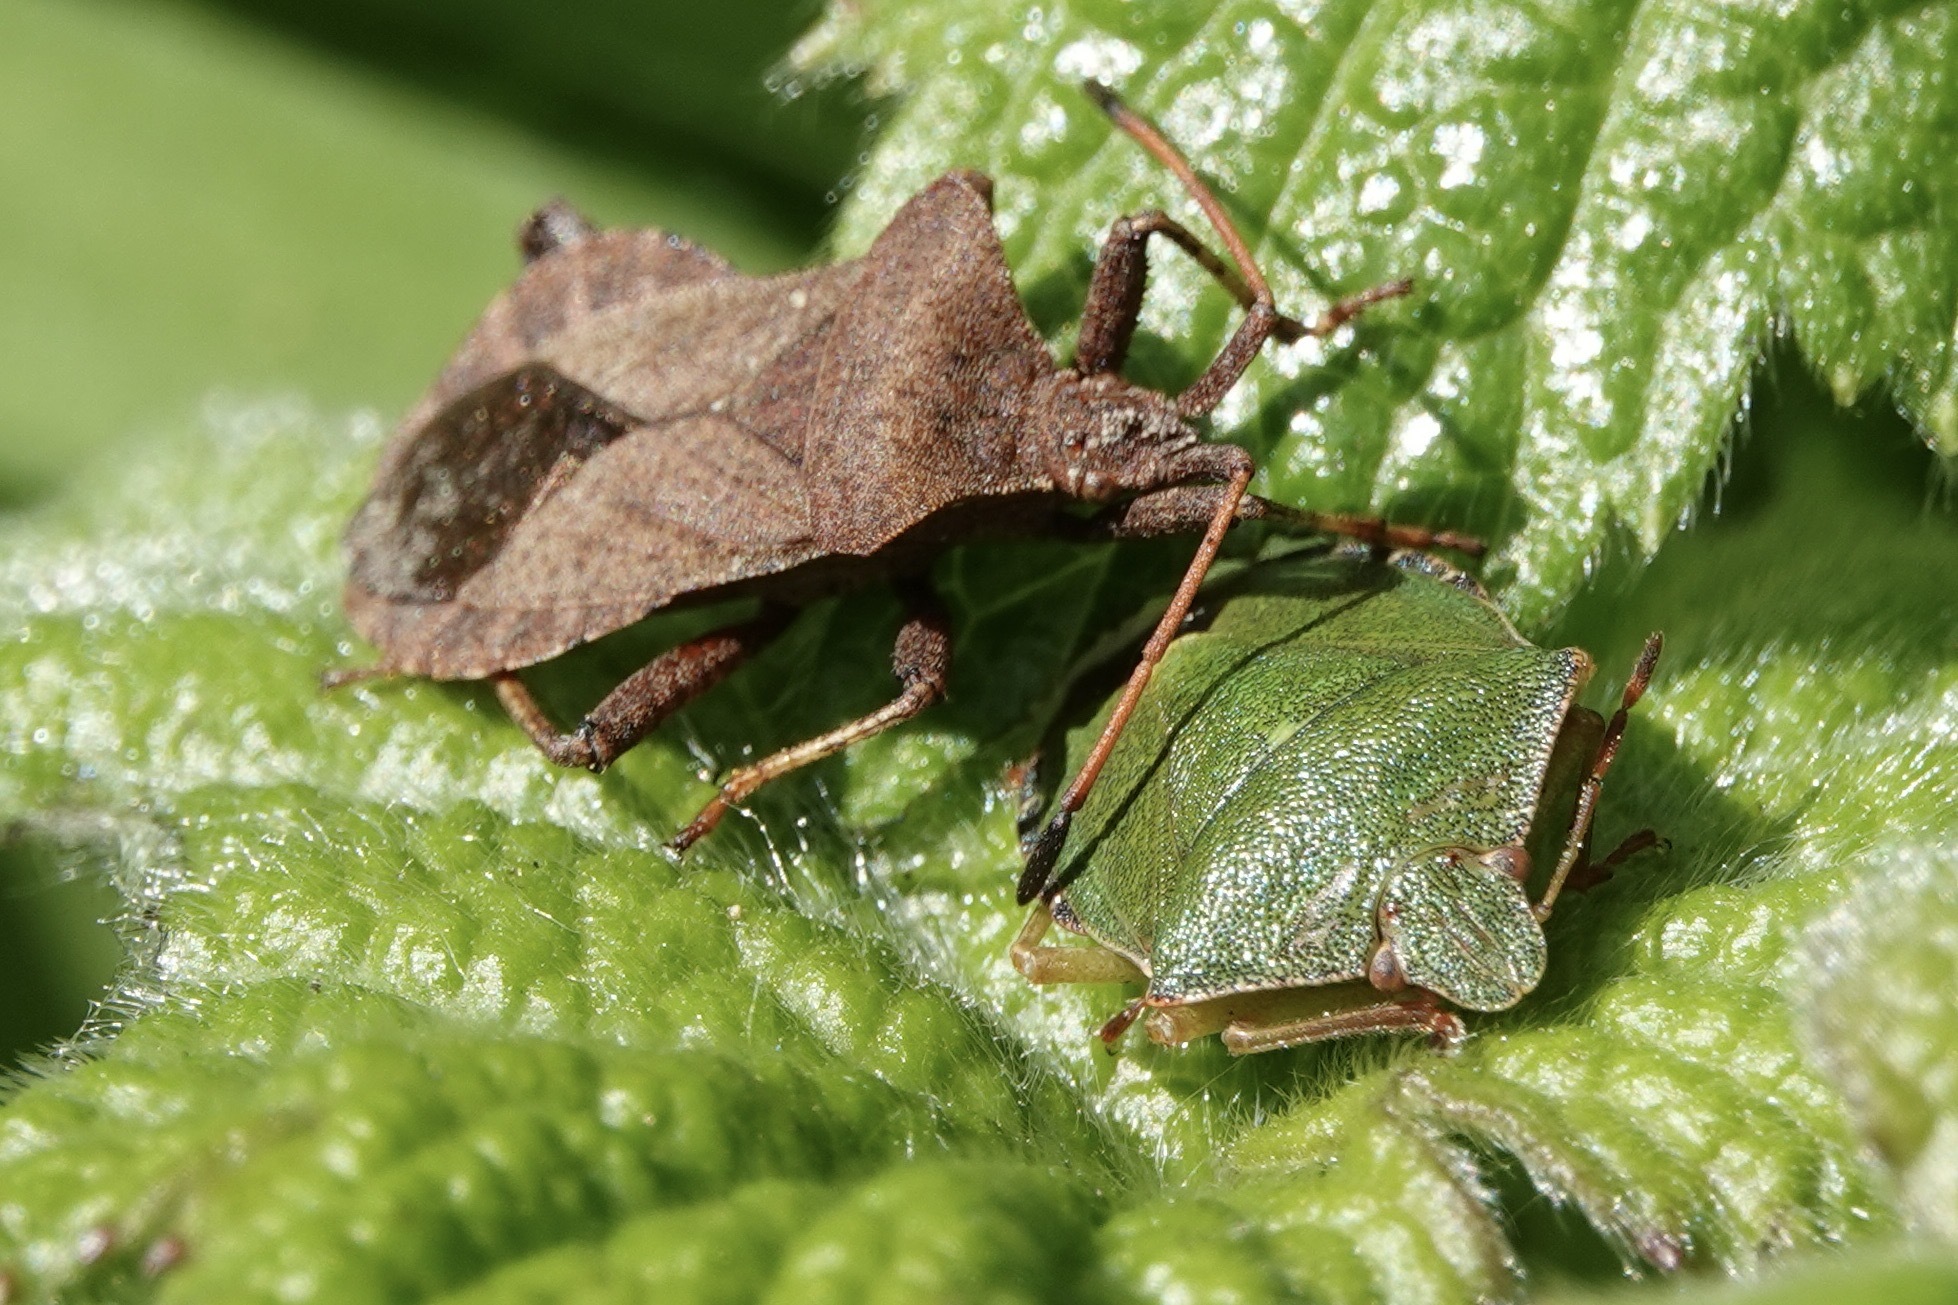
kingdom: Animalia
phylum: Arthropoda
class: Insecta
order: Hemiptera
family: Coreidae
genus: Coreus
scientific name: Coreus marginatus
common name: Dock bug
